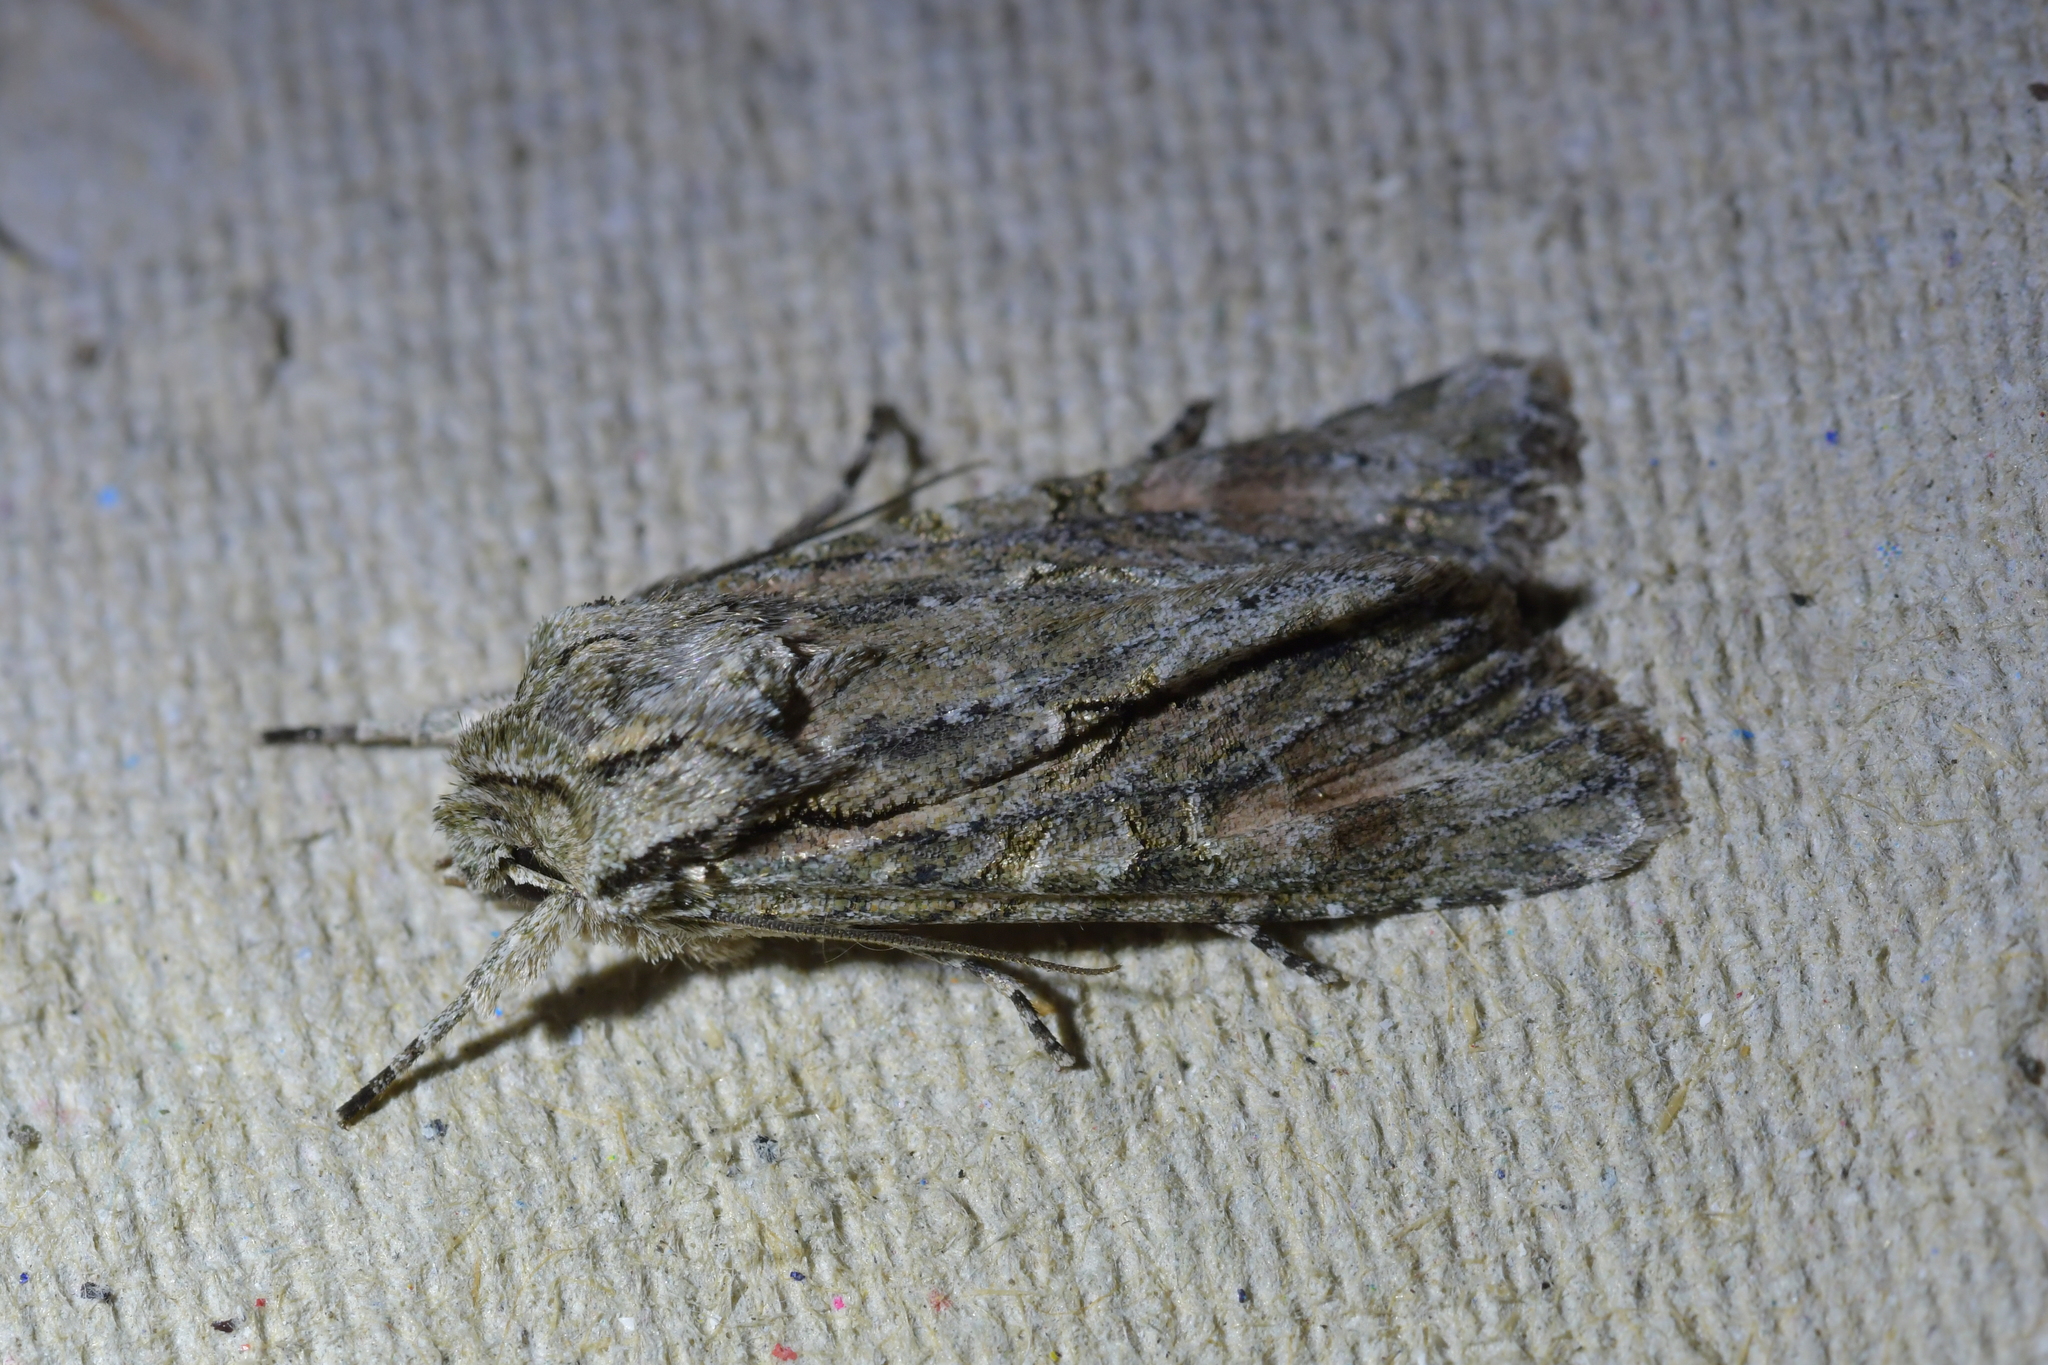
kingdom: Animalia
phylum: Arthropoda
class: Insecta
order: Lepidoptera
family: Noctuidae
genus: Ichneutica
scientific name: Ichneutica mutans
